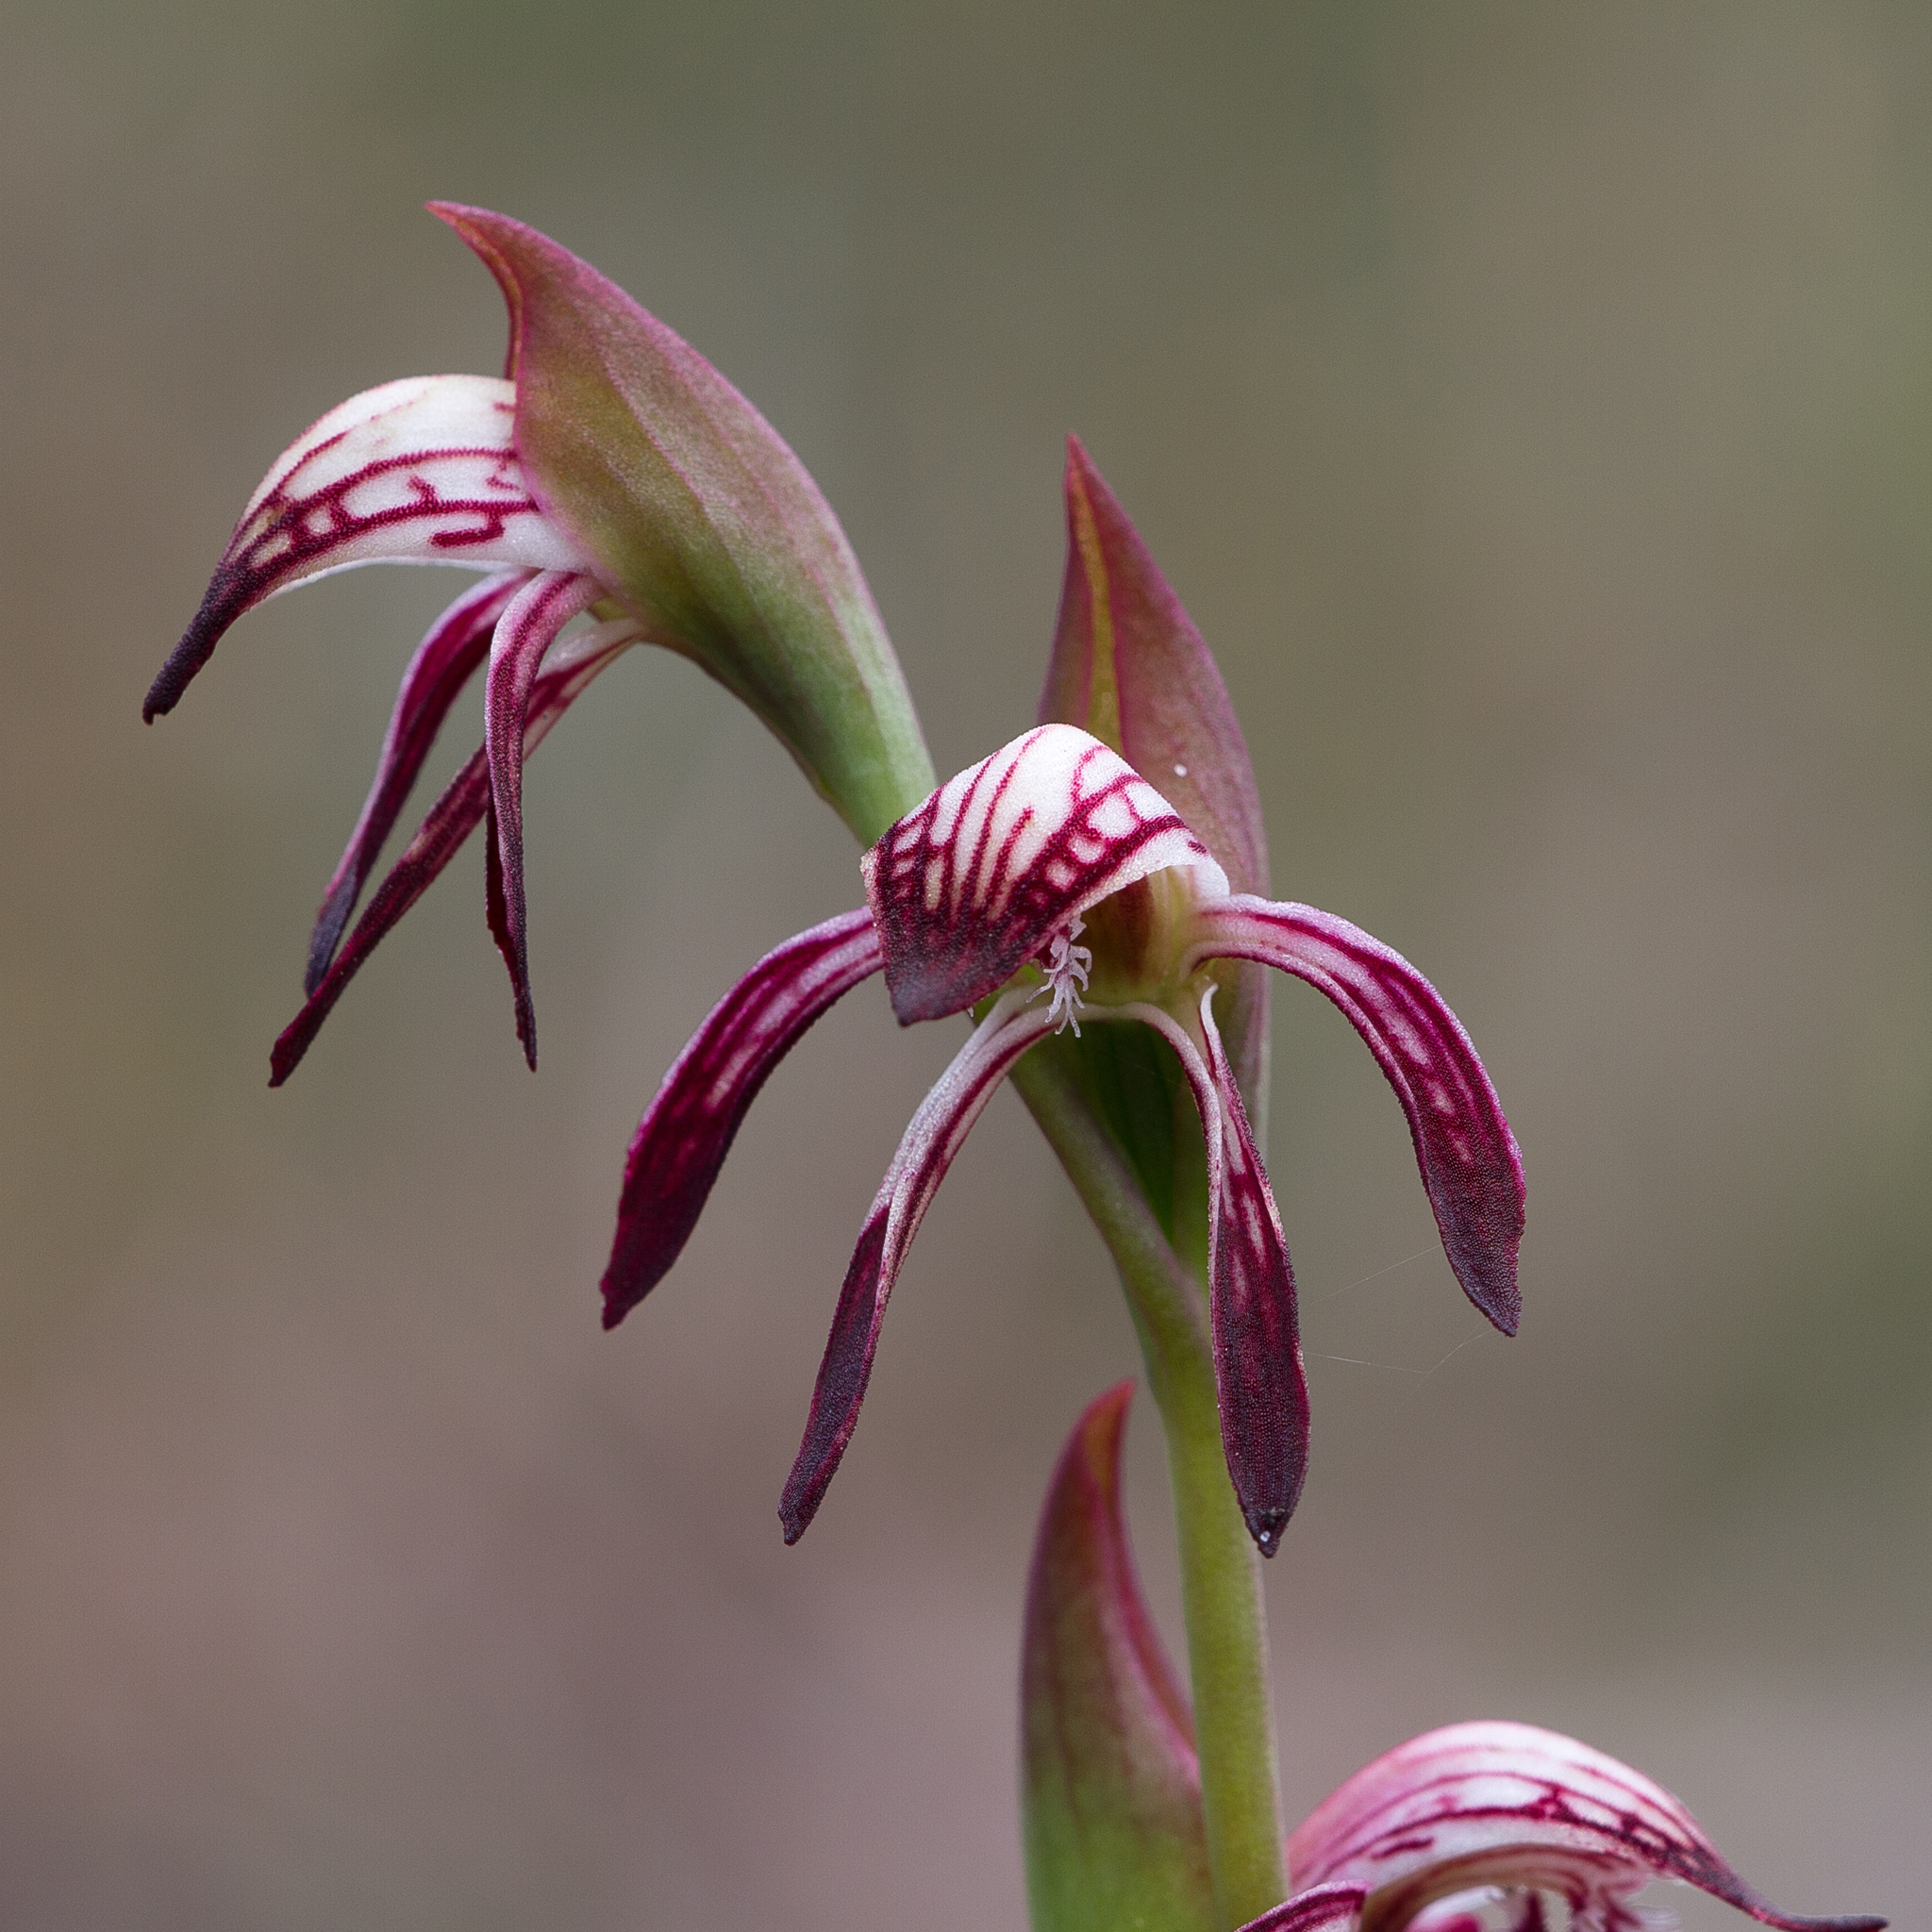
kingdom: Plantae
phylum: Tracheophyta
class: Liliopsida
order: Asparagales
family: Orchidaceae
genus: Pyrorchis
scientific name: Pyrorchis nigricans
